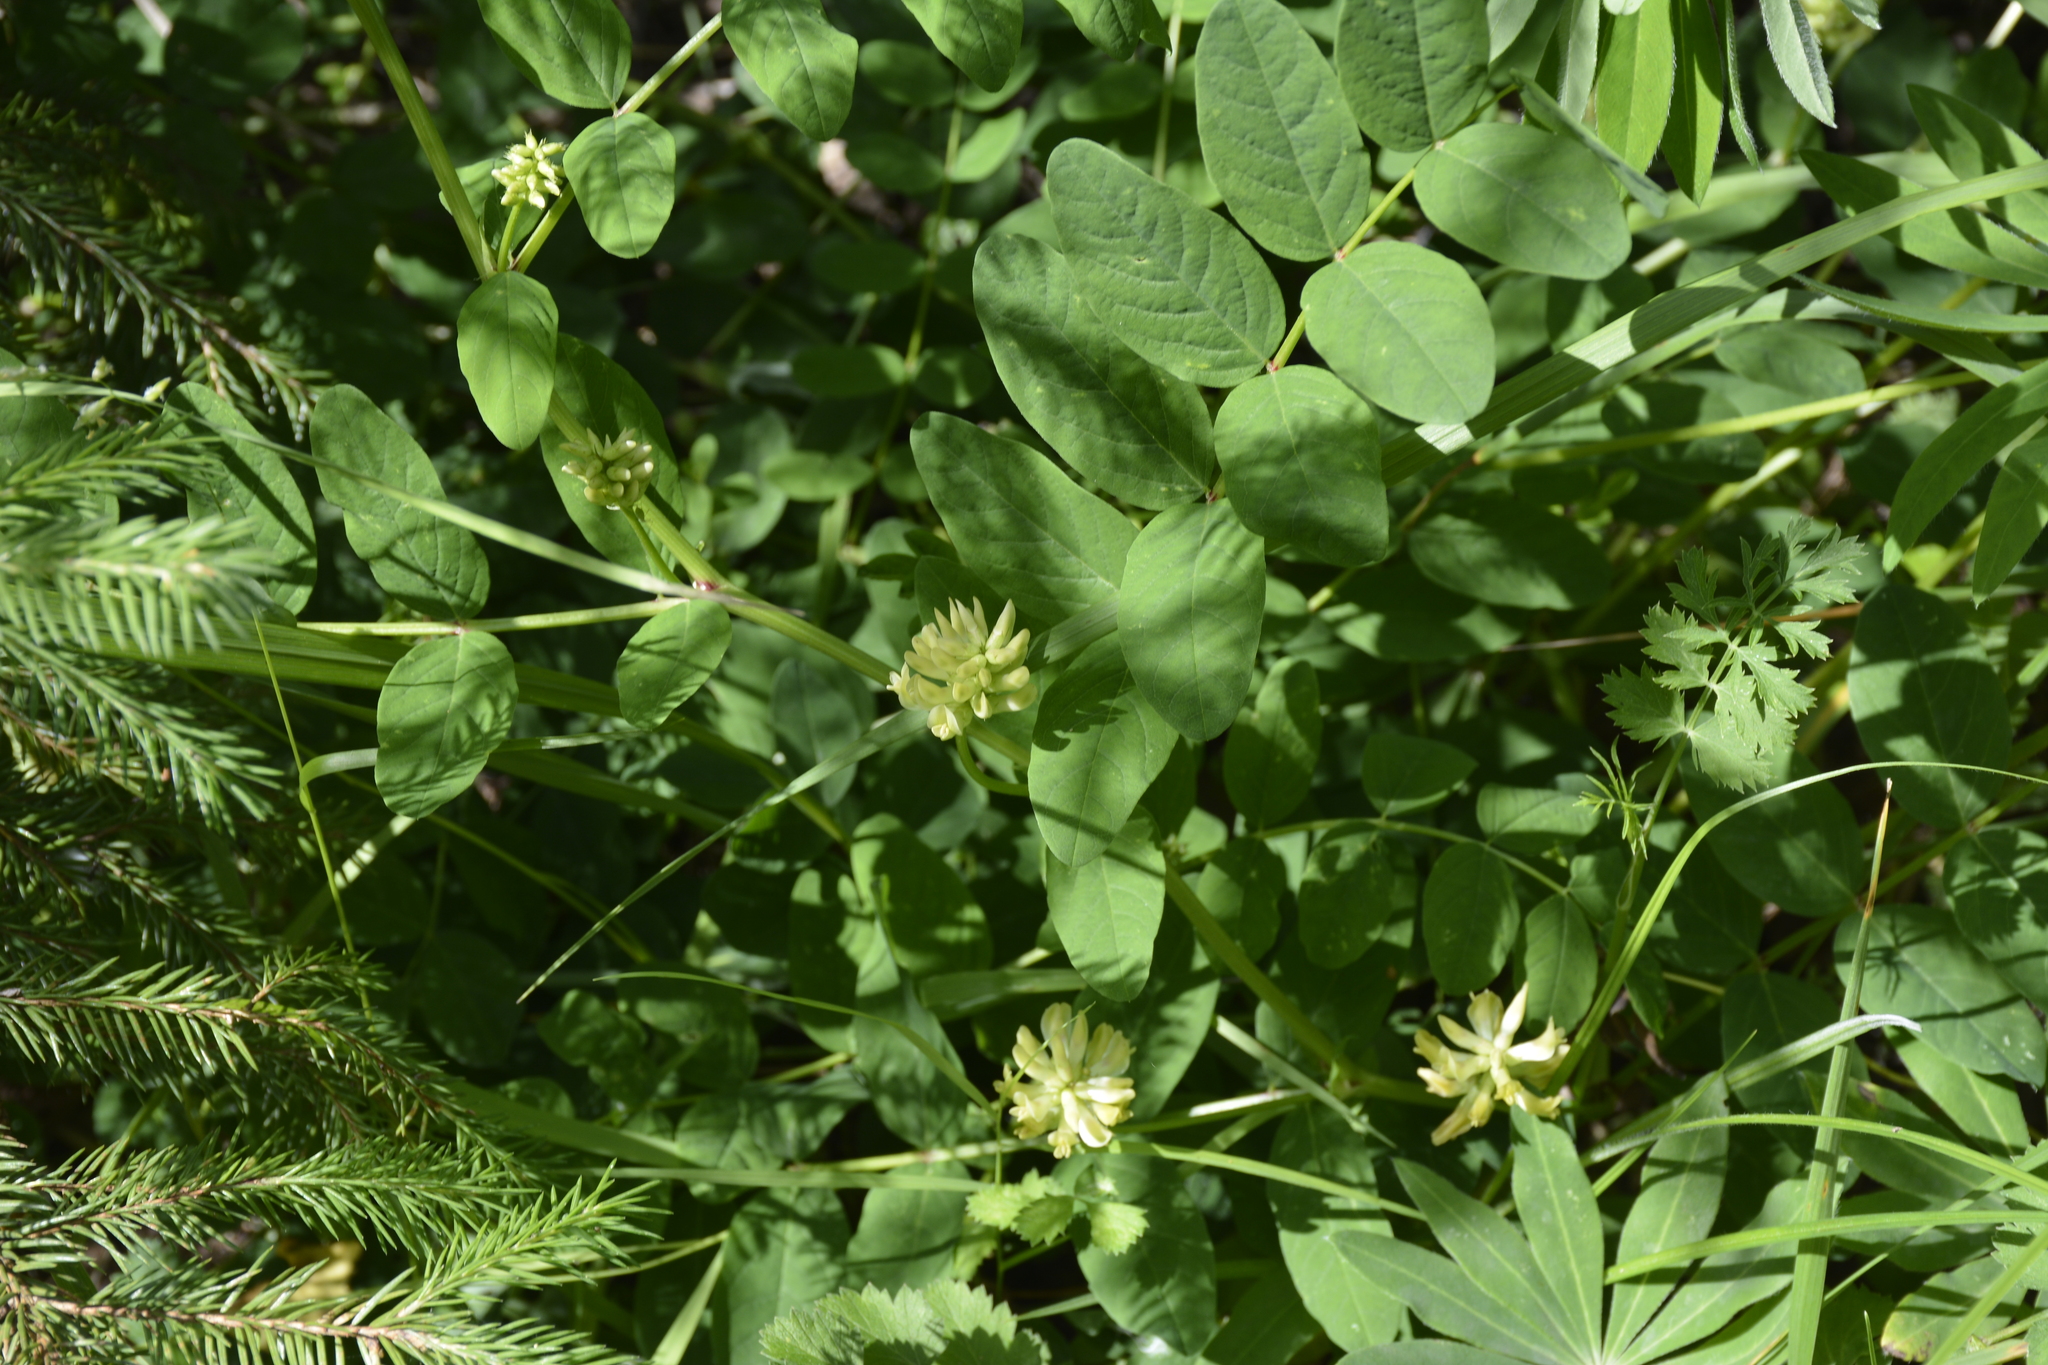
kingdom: Plantae
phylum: Tracheophyta
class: Magnoliopsida
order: Fabales
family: Fabaceae
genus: Astragalus
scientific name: Astragalus glycyphyllos
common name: Wild liquorice
